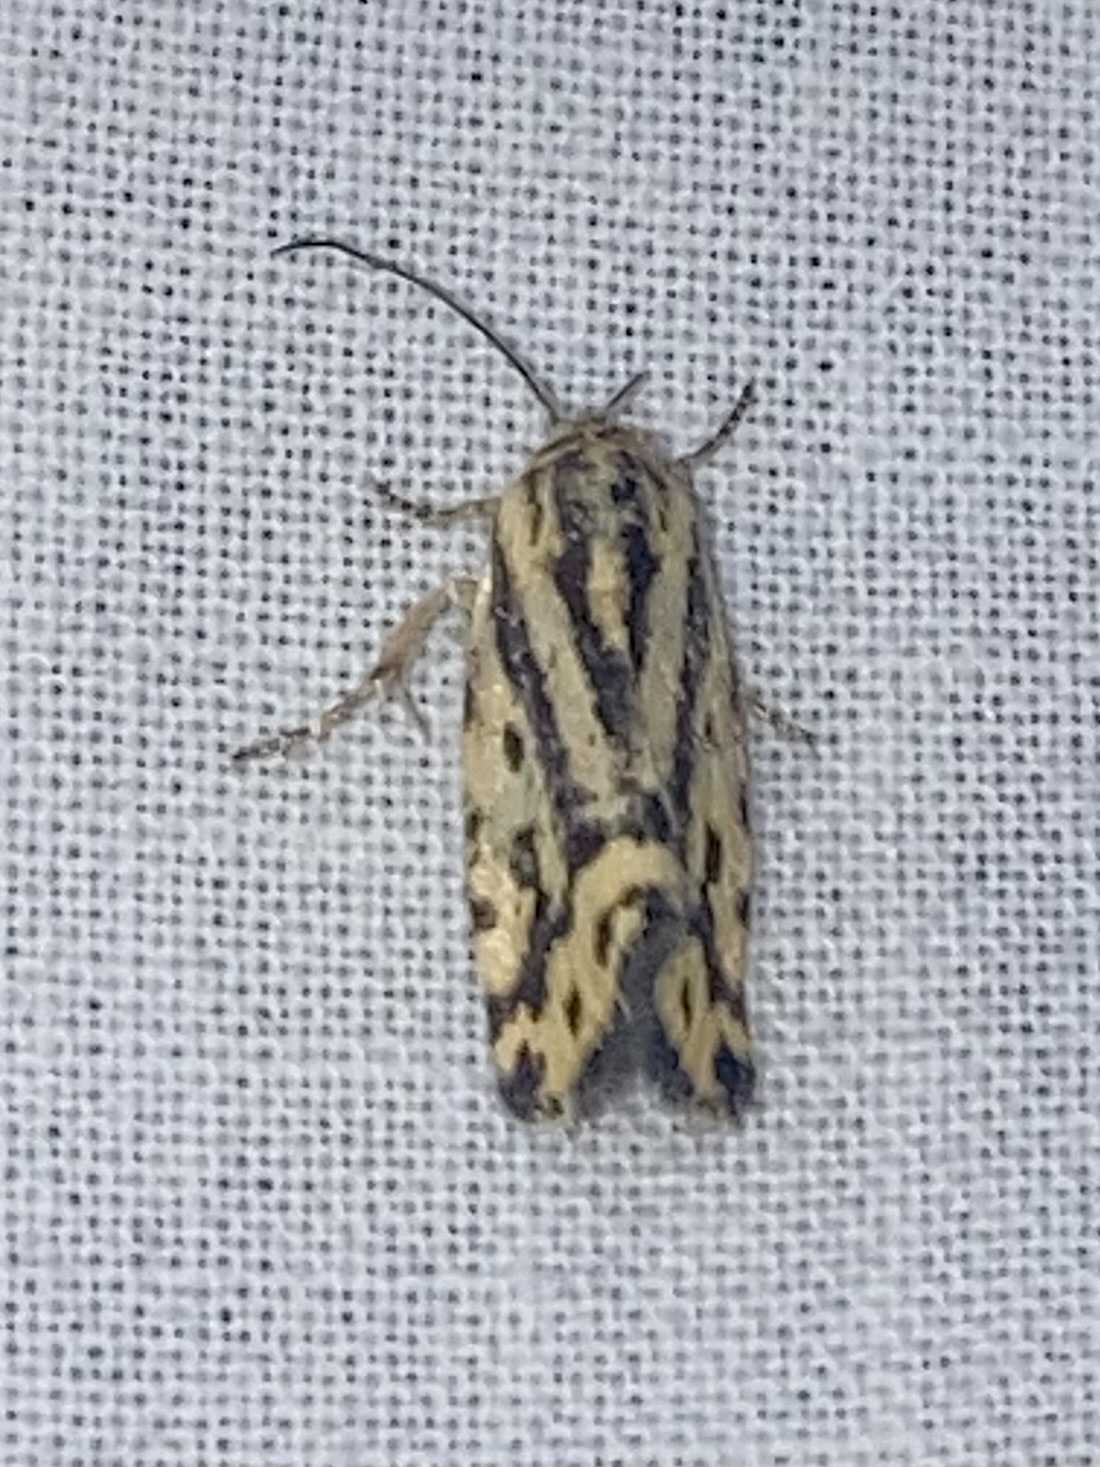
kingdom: Animalia
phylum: Arthropoda
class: Insecta
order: Lepidoptera
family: Noctuidae
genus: Acontia
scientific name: Acontia trabealis
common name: Spotted sulphur
